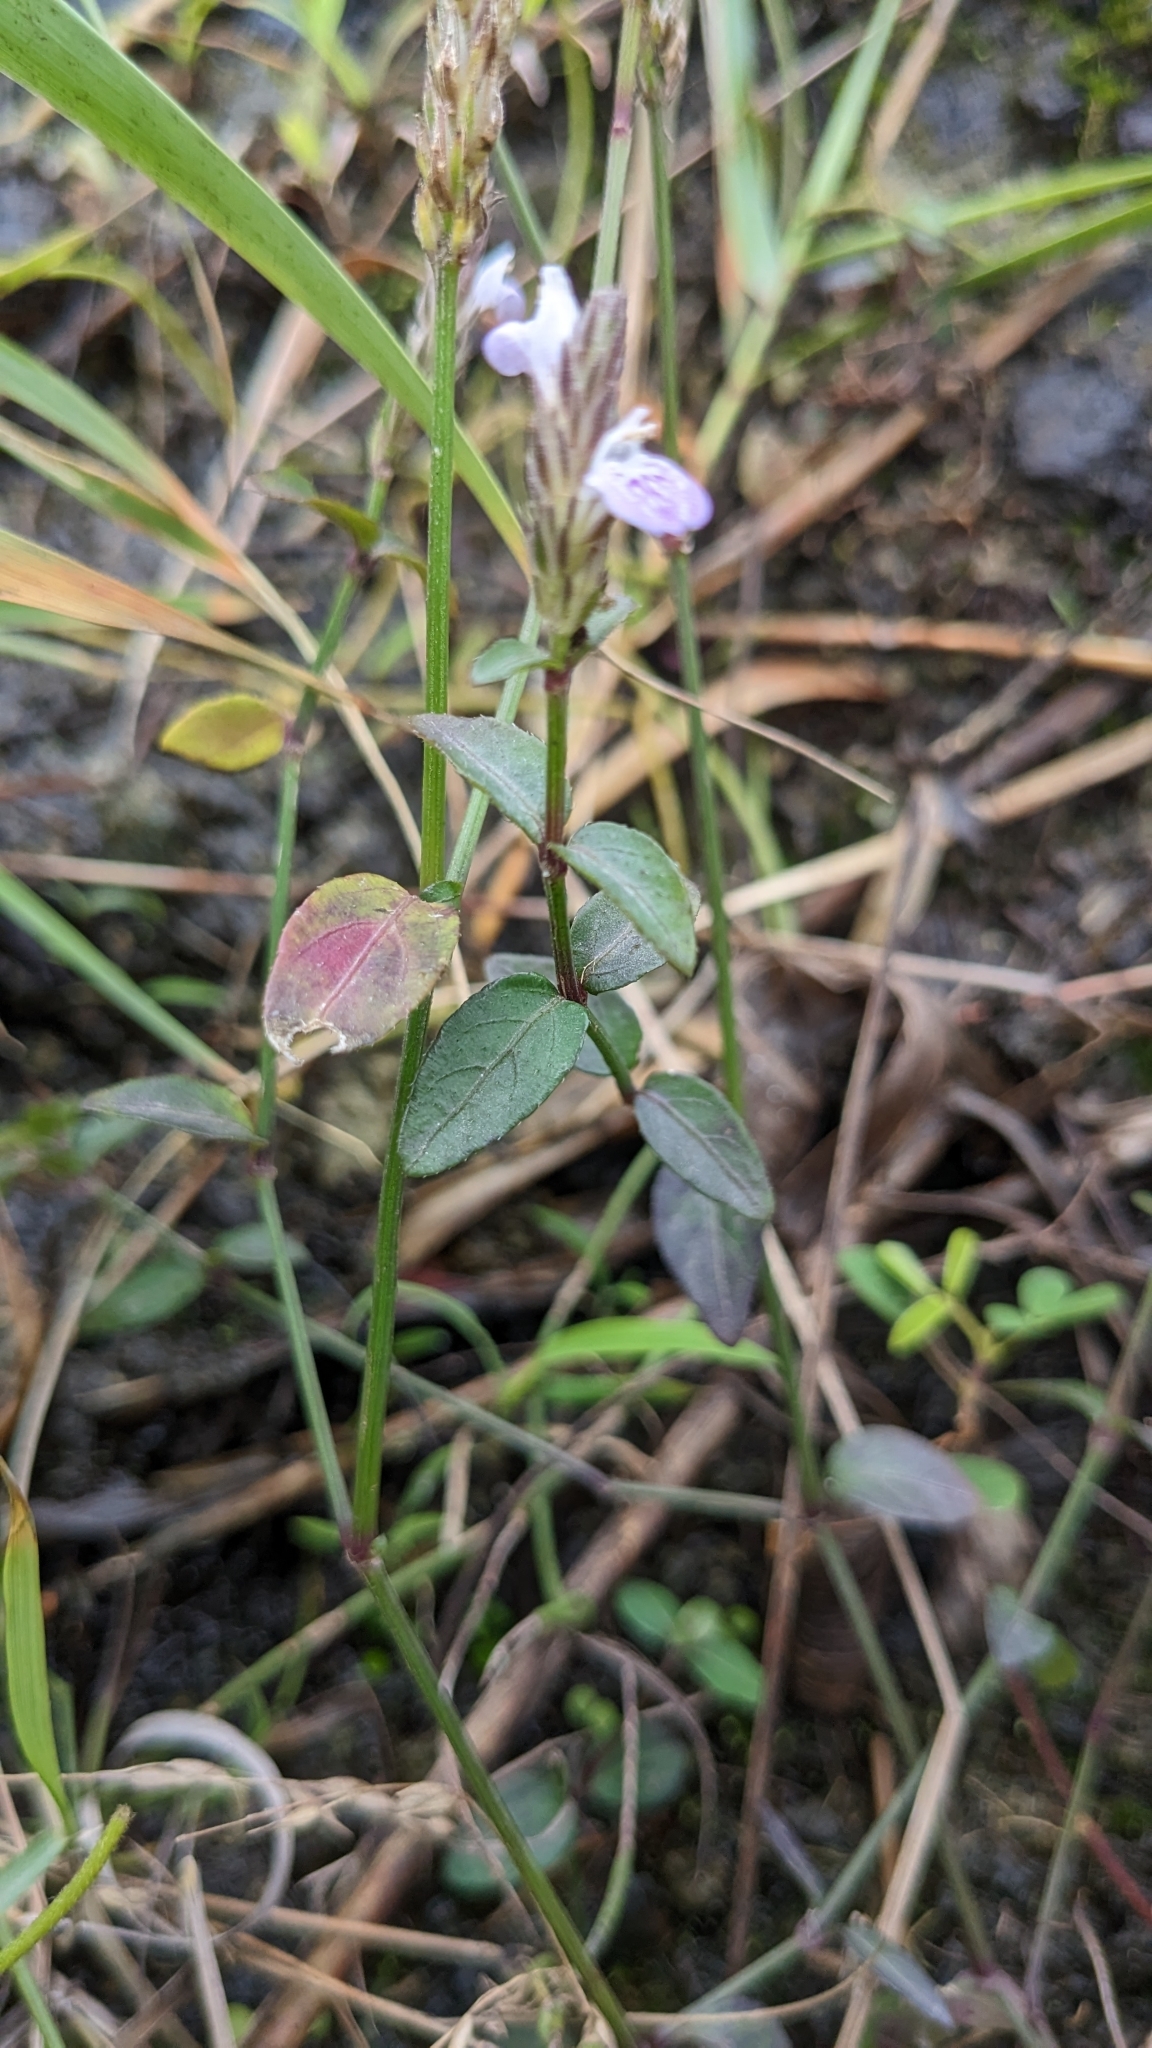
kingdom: Plantae
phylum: Tracheophyta
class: Magnoliopsida
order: Lamiales
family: Acanthaceae
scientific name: Acanthaceae
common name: Acanthaceae
